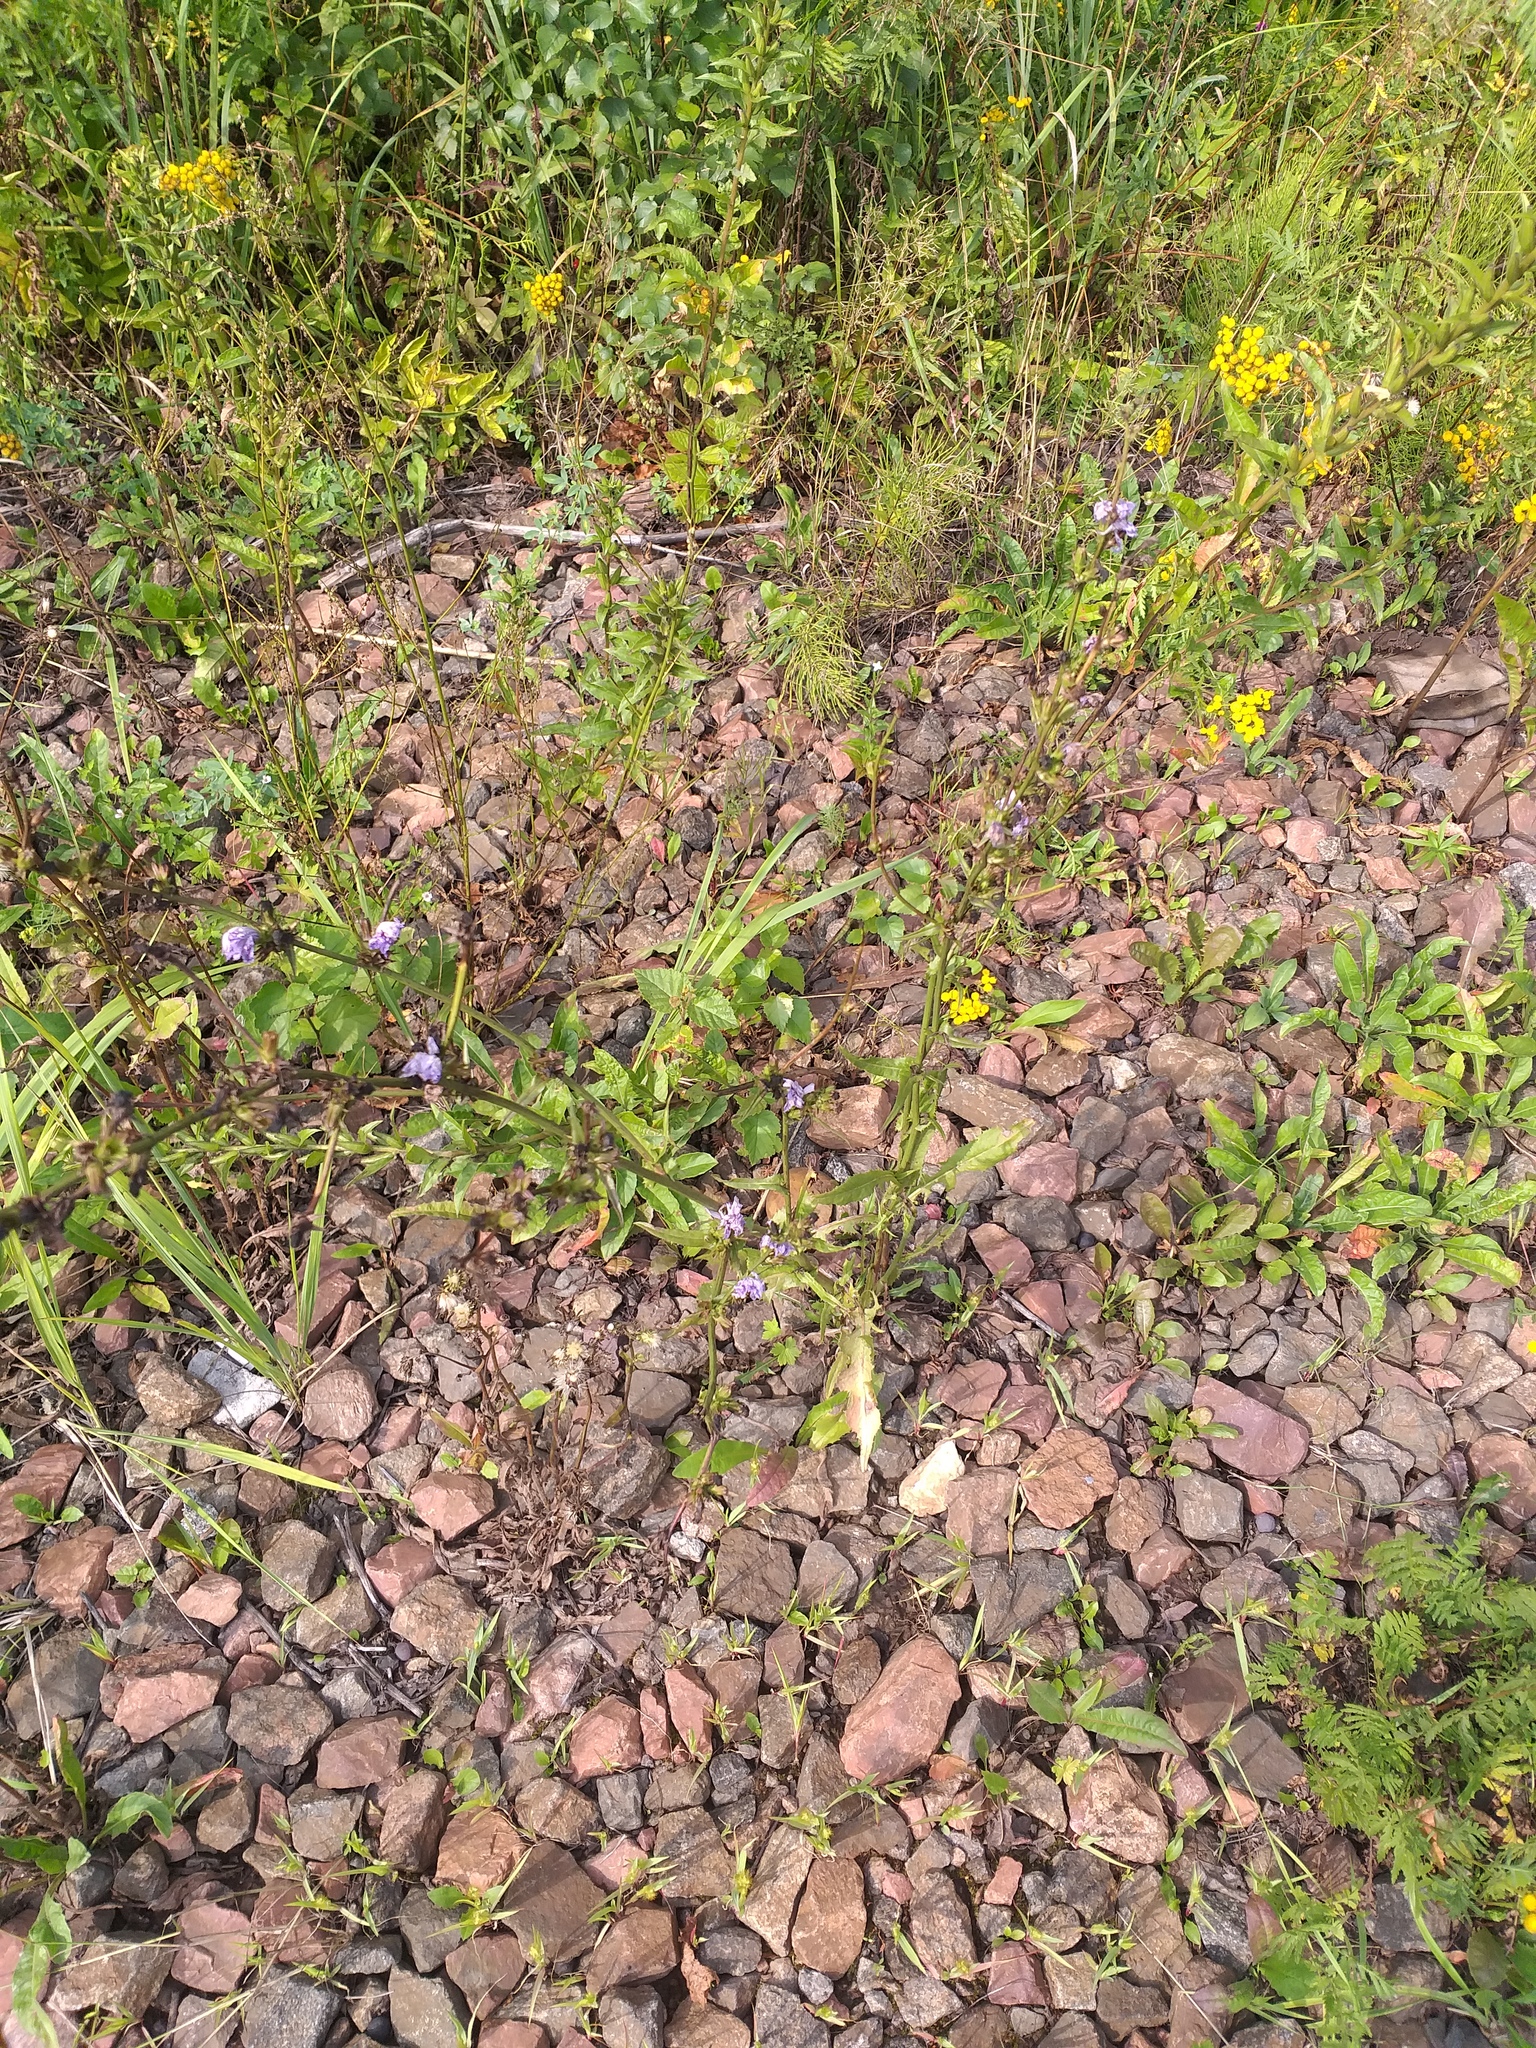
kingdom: Plantae
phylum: Tracheophyta
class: Magnoliopsida
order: Asterales
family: Asteraceae
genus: Cichorium
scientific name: Cichorium intybus
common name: Chicory
